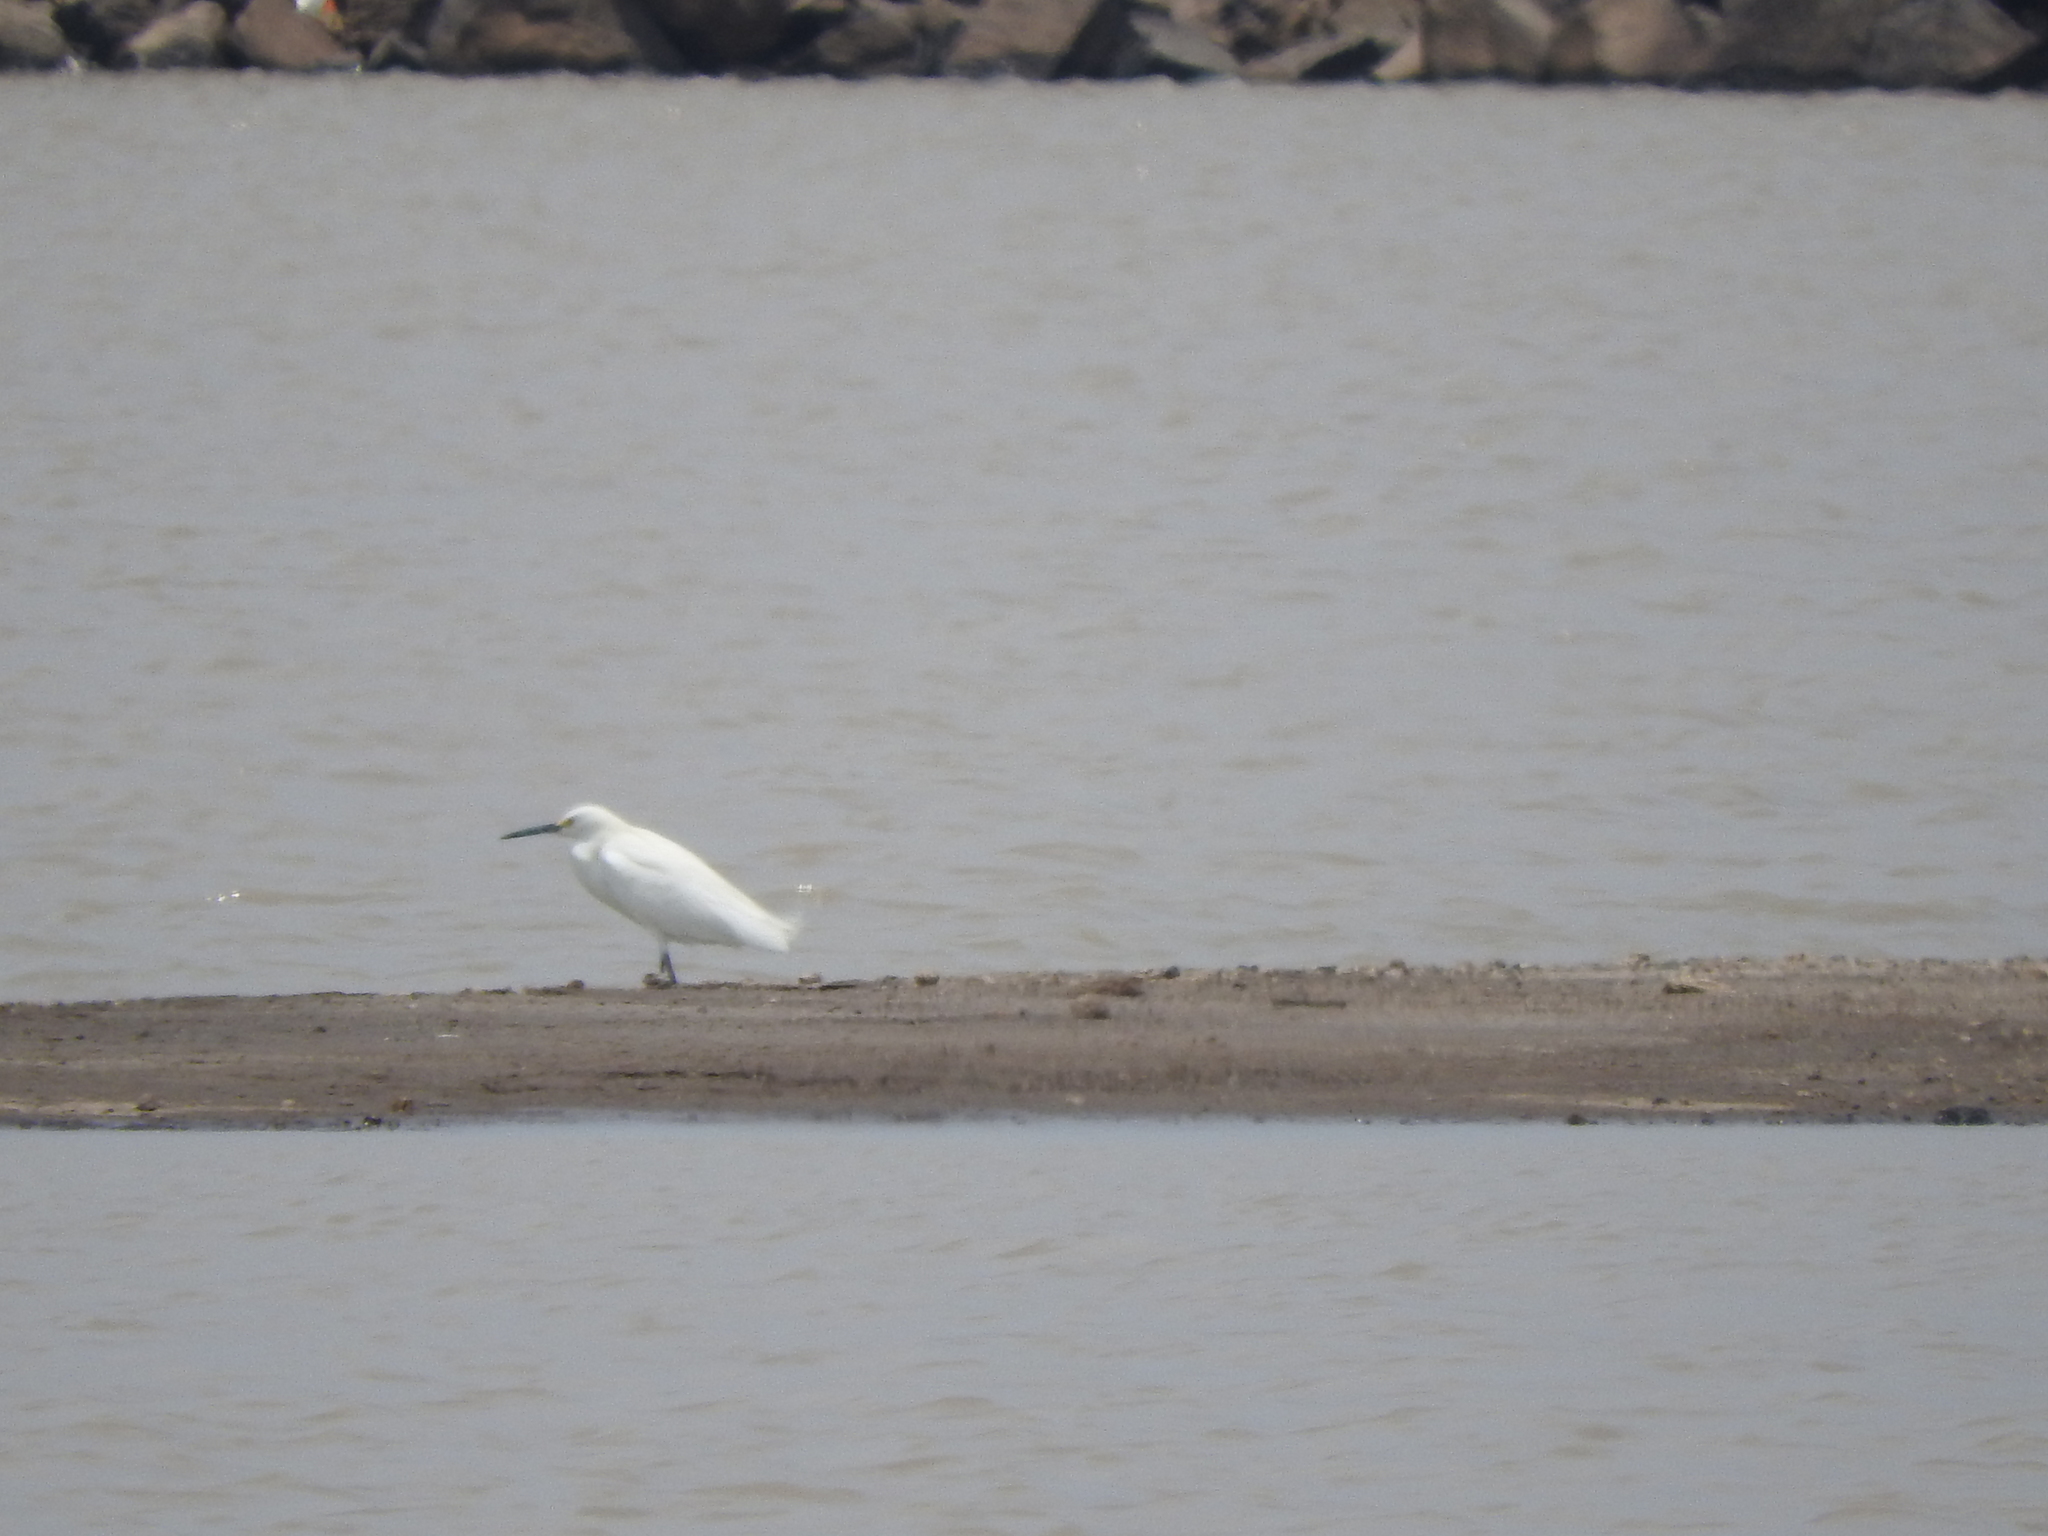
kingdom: Animalia
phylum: Chordata
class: Aves
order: Pelecaniformes
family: Ardeidae
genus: Egretta
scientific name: Egretta thula
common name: Snowy egret
